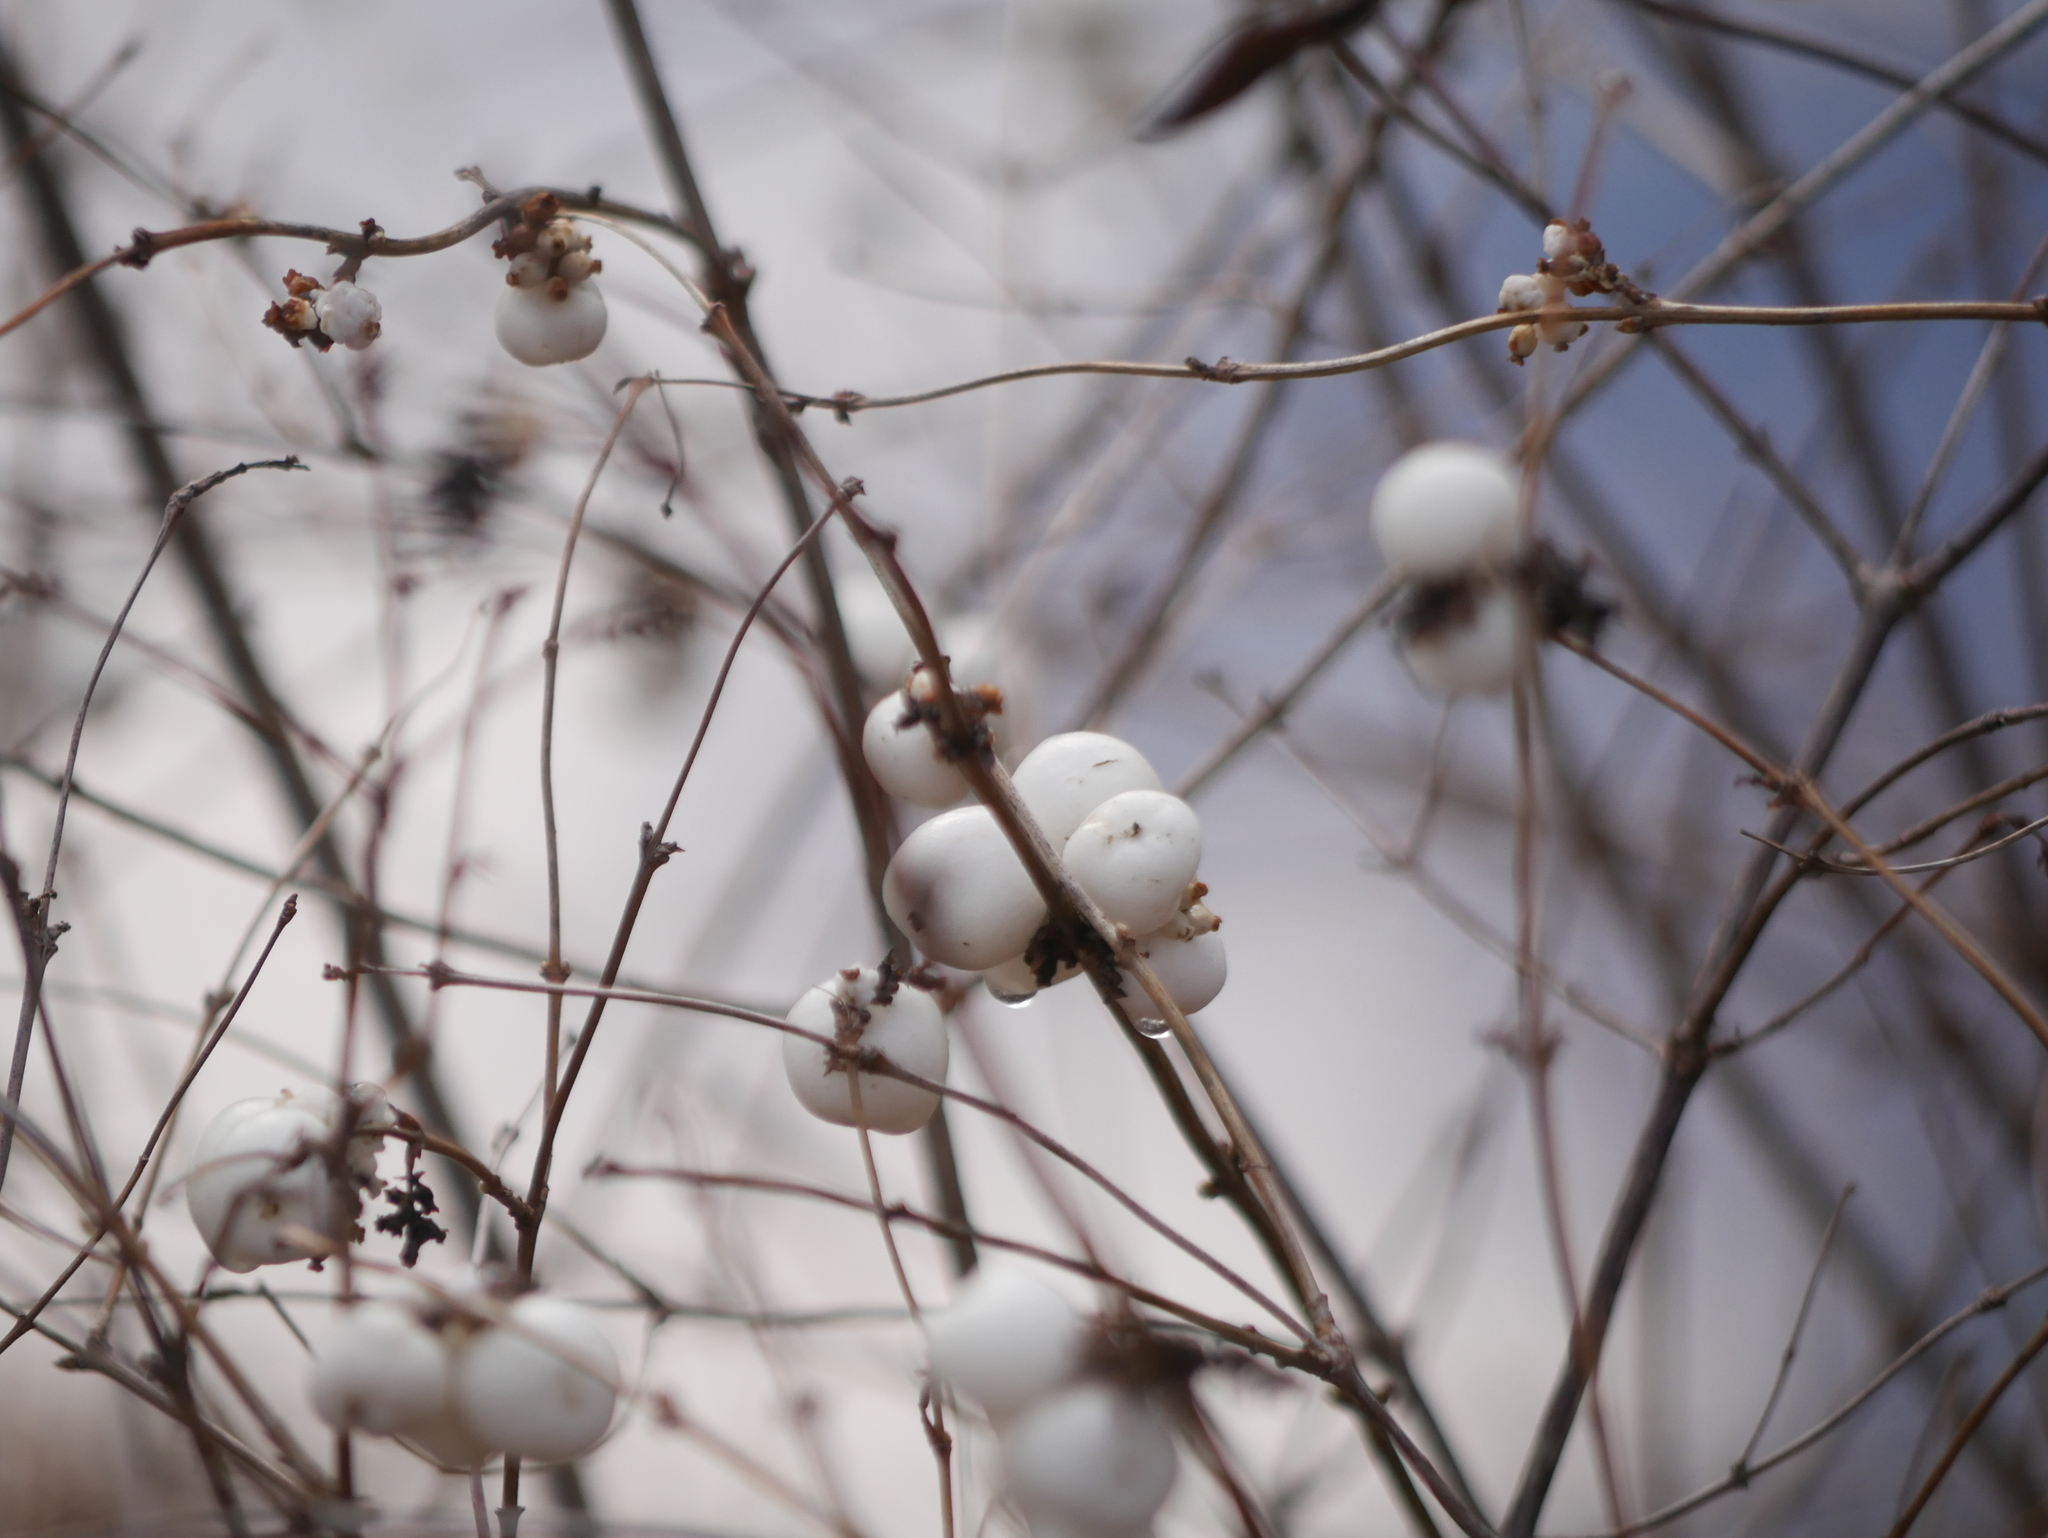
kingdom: Plantae
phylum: Tracheophyta
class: Magnoliopsida
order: Dipsacales
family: Caprifoliaceae
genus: Symphoricarpos
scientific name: Symphoricarpos albus
